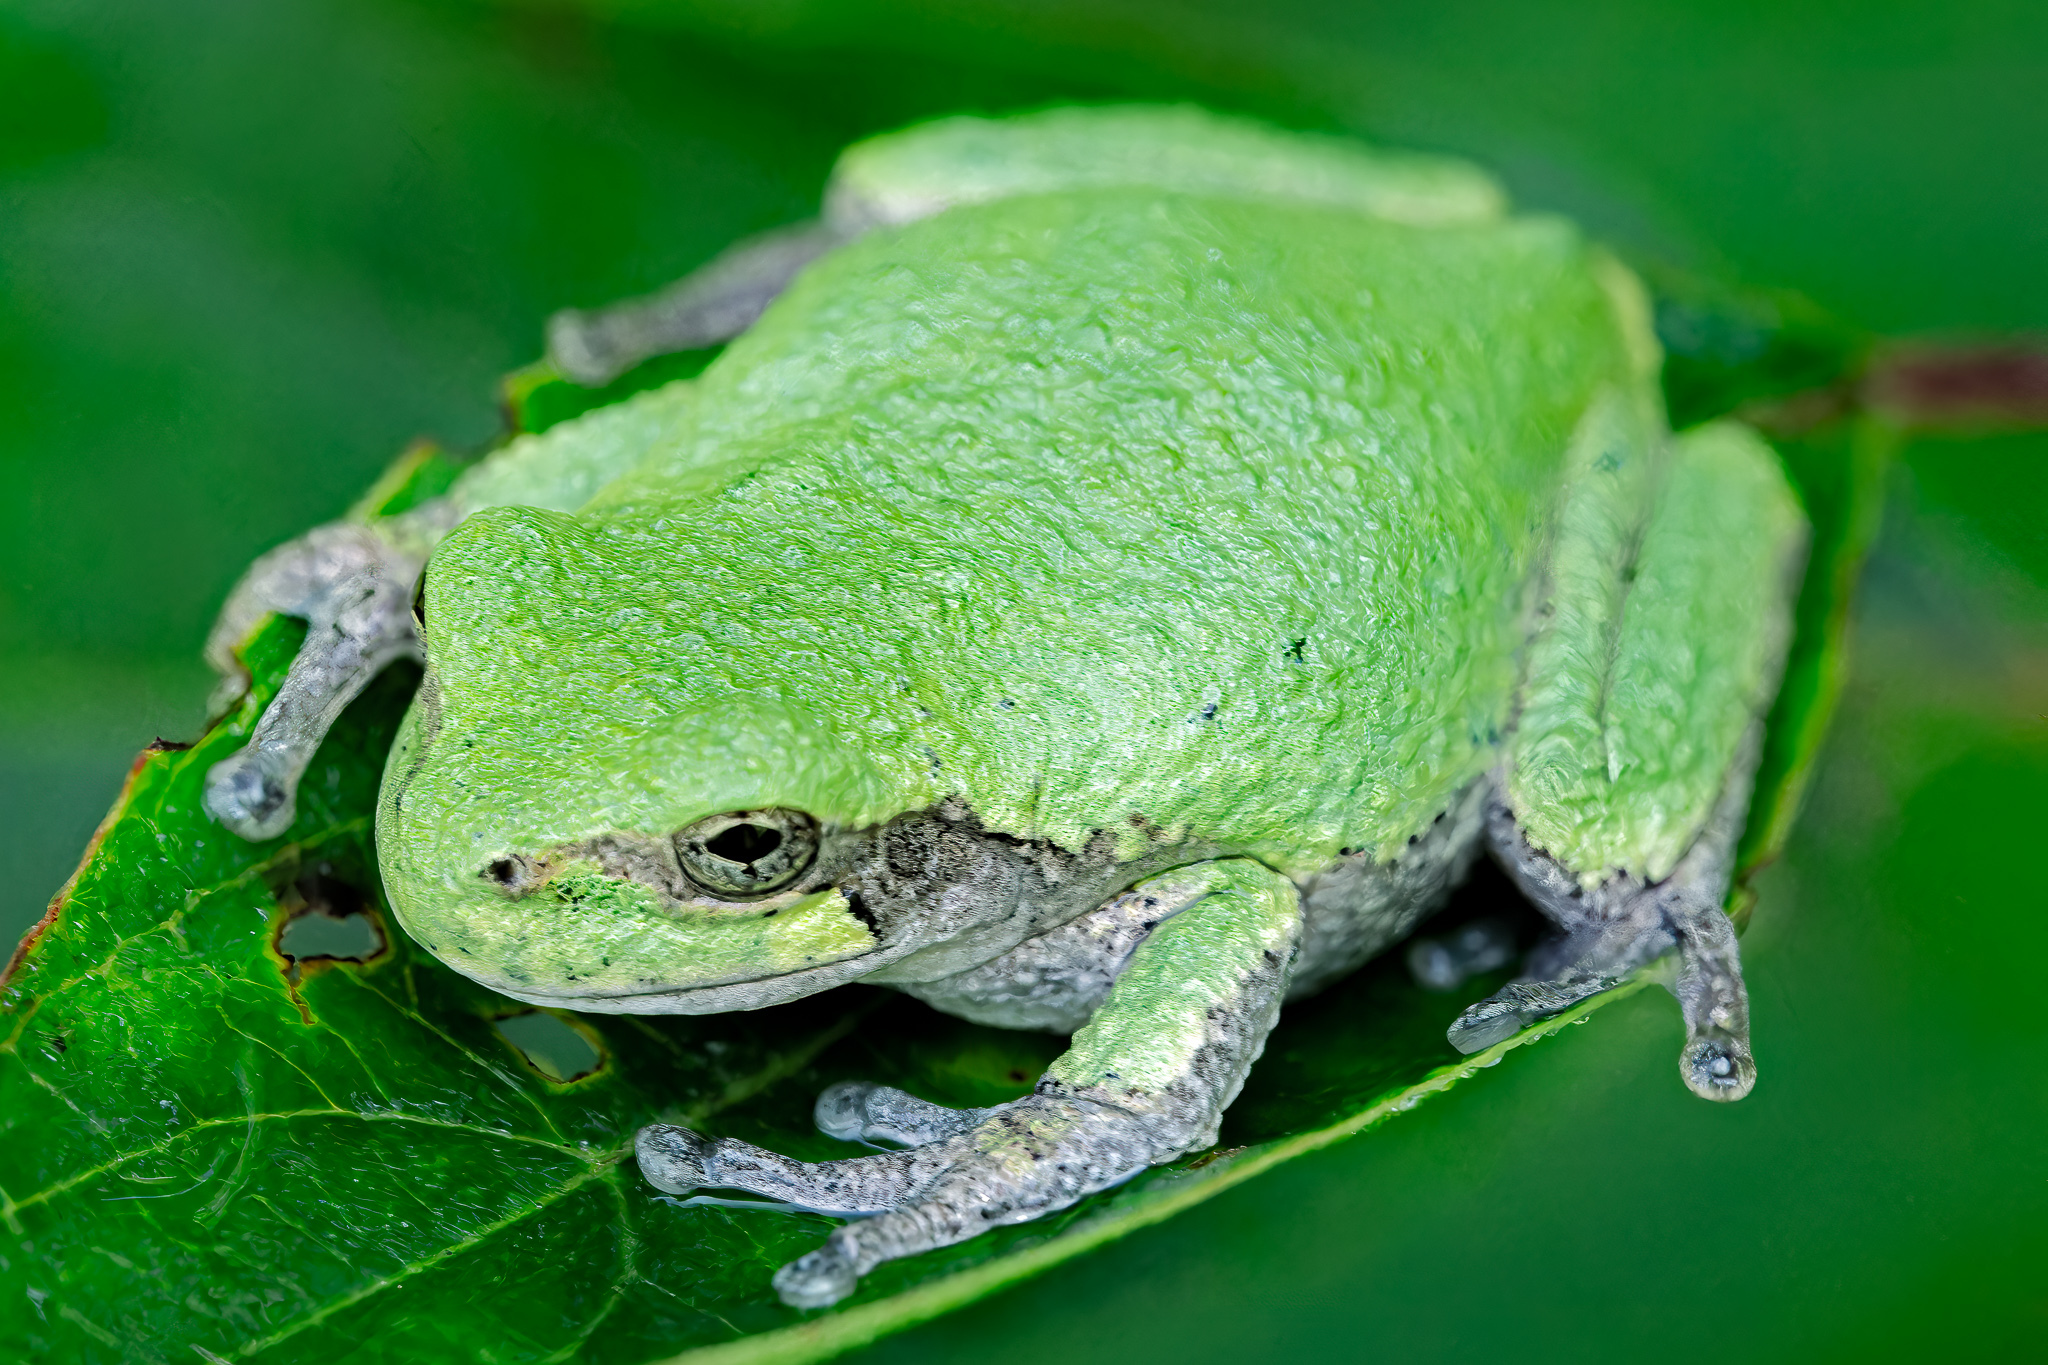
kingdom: Animalia
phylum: Chordata
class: Amphibia
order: Anura
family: Hylidae
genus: Dryophytes
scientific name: Dryophytes versicolor
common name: Gray treefrog
